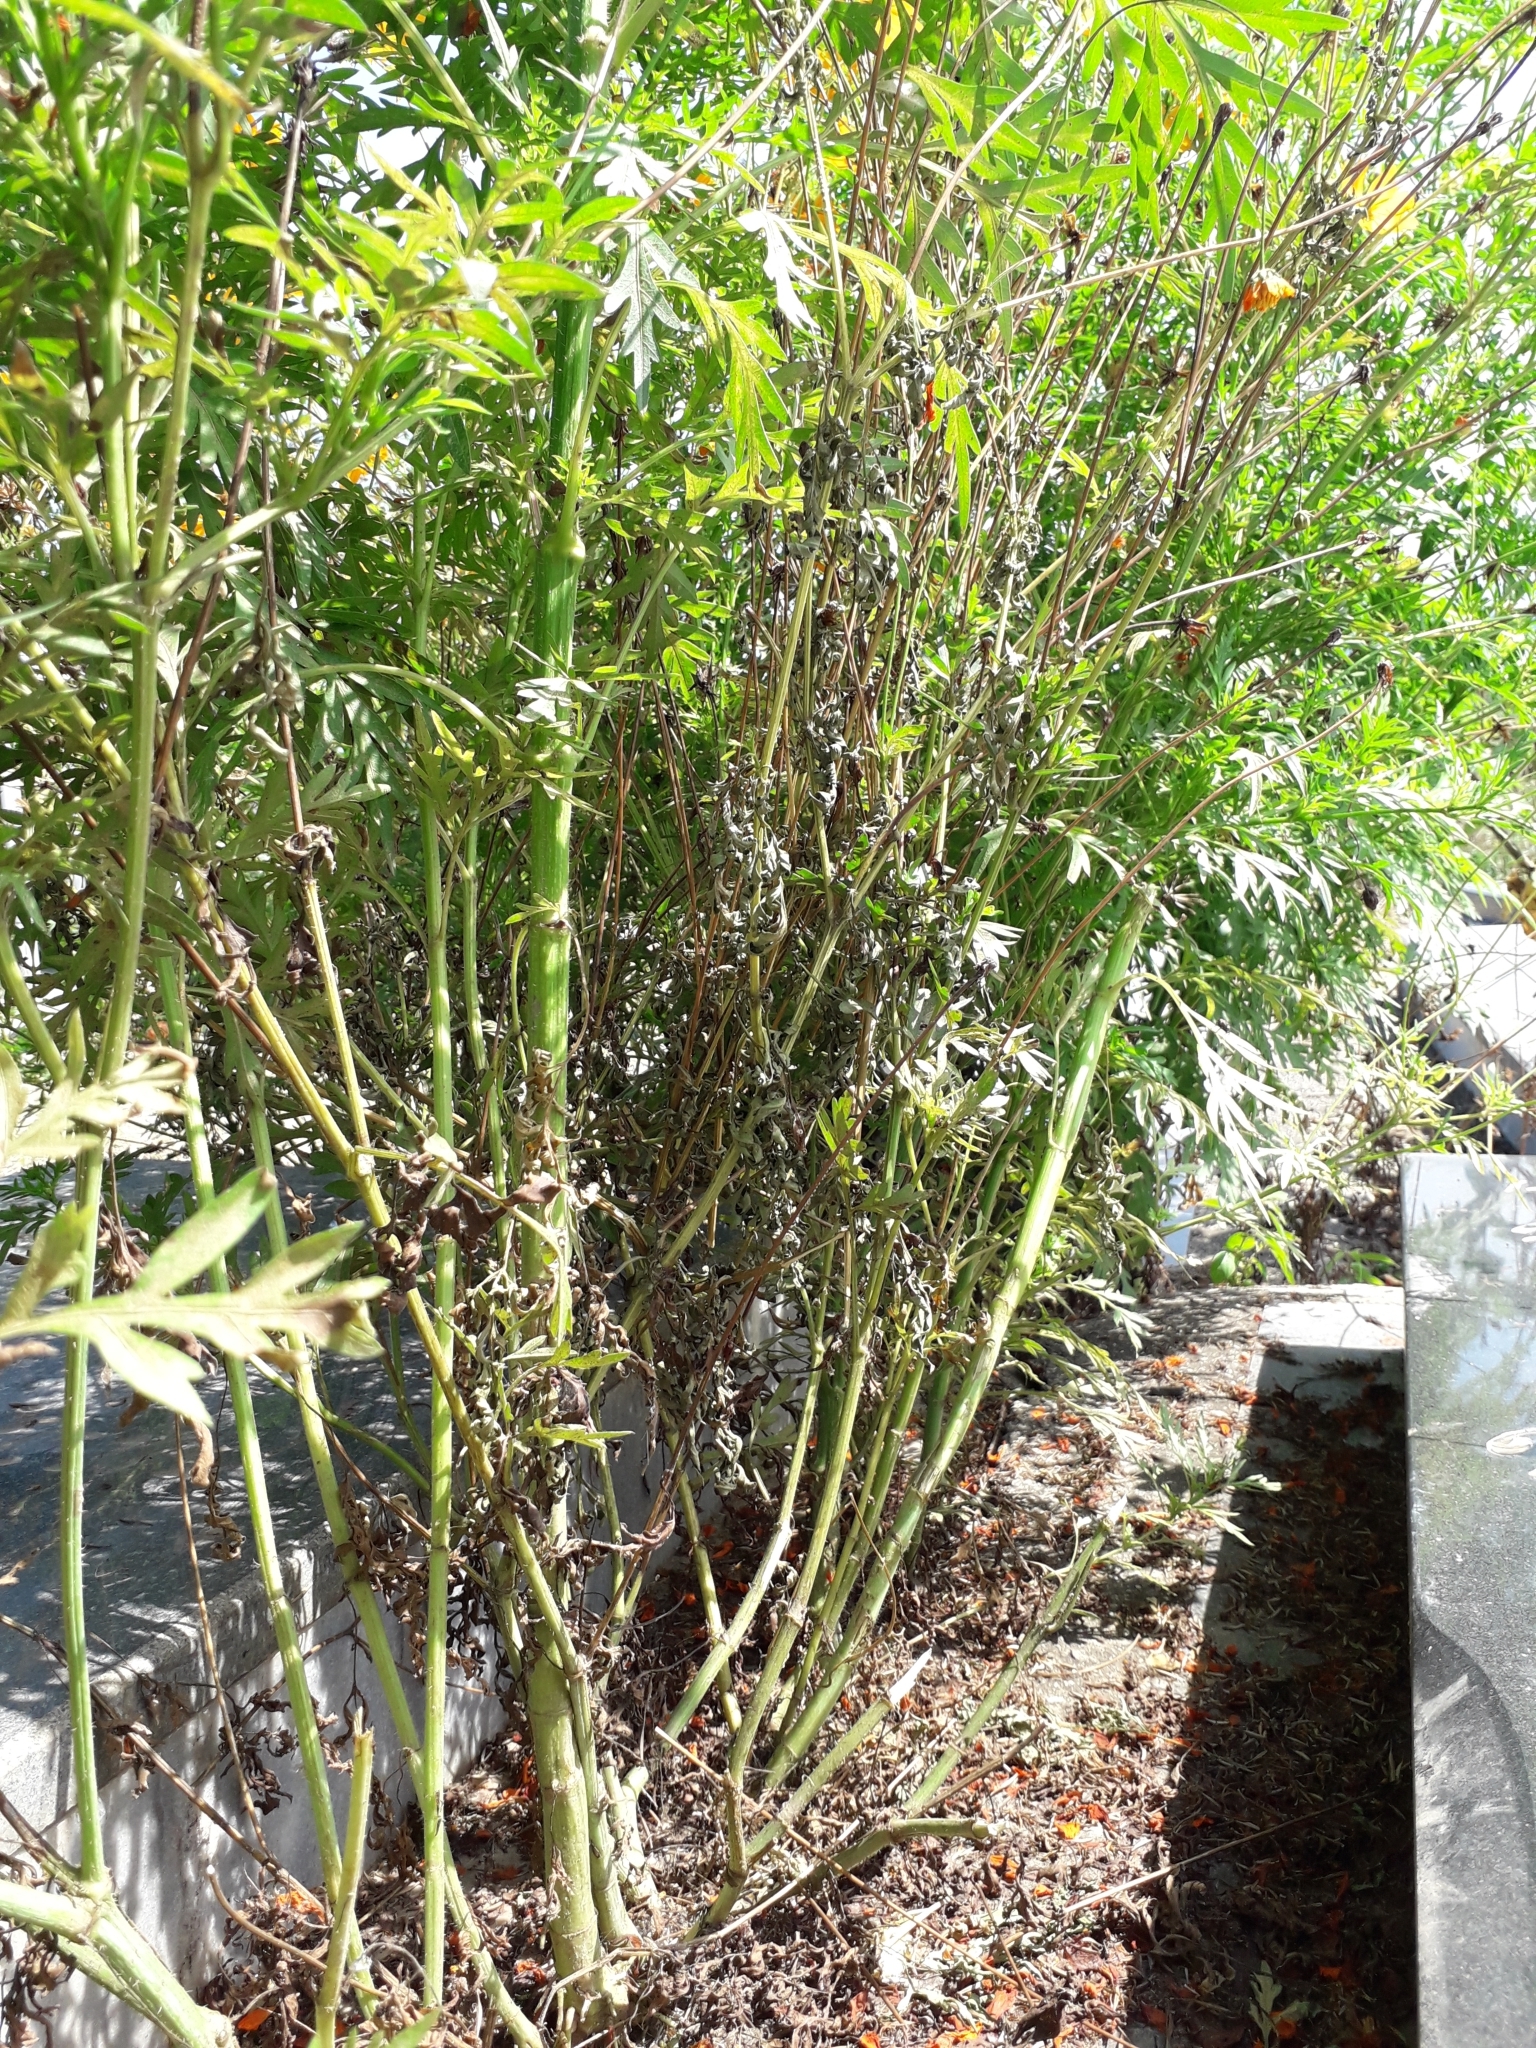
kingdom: Plantae
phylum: Tracheophyta
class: Magnoliopsida
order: Asterales
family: Asteraceae
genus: Cosmos
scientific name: Cosmos sulphureus
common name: Sulphur cosmos
